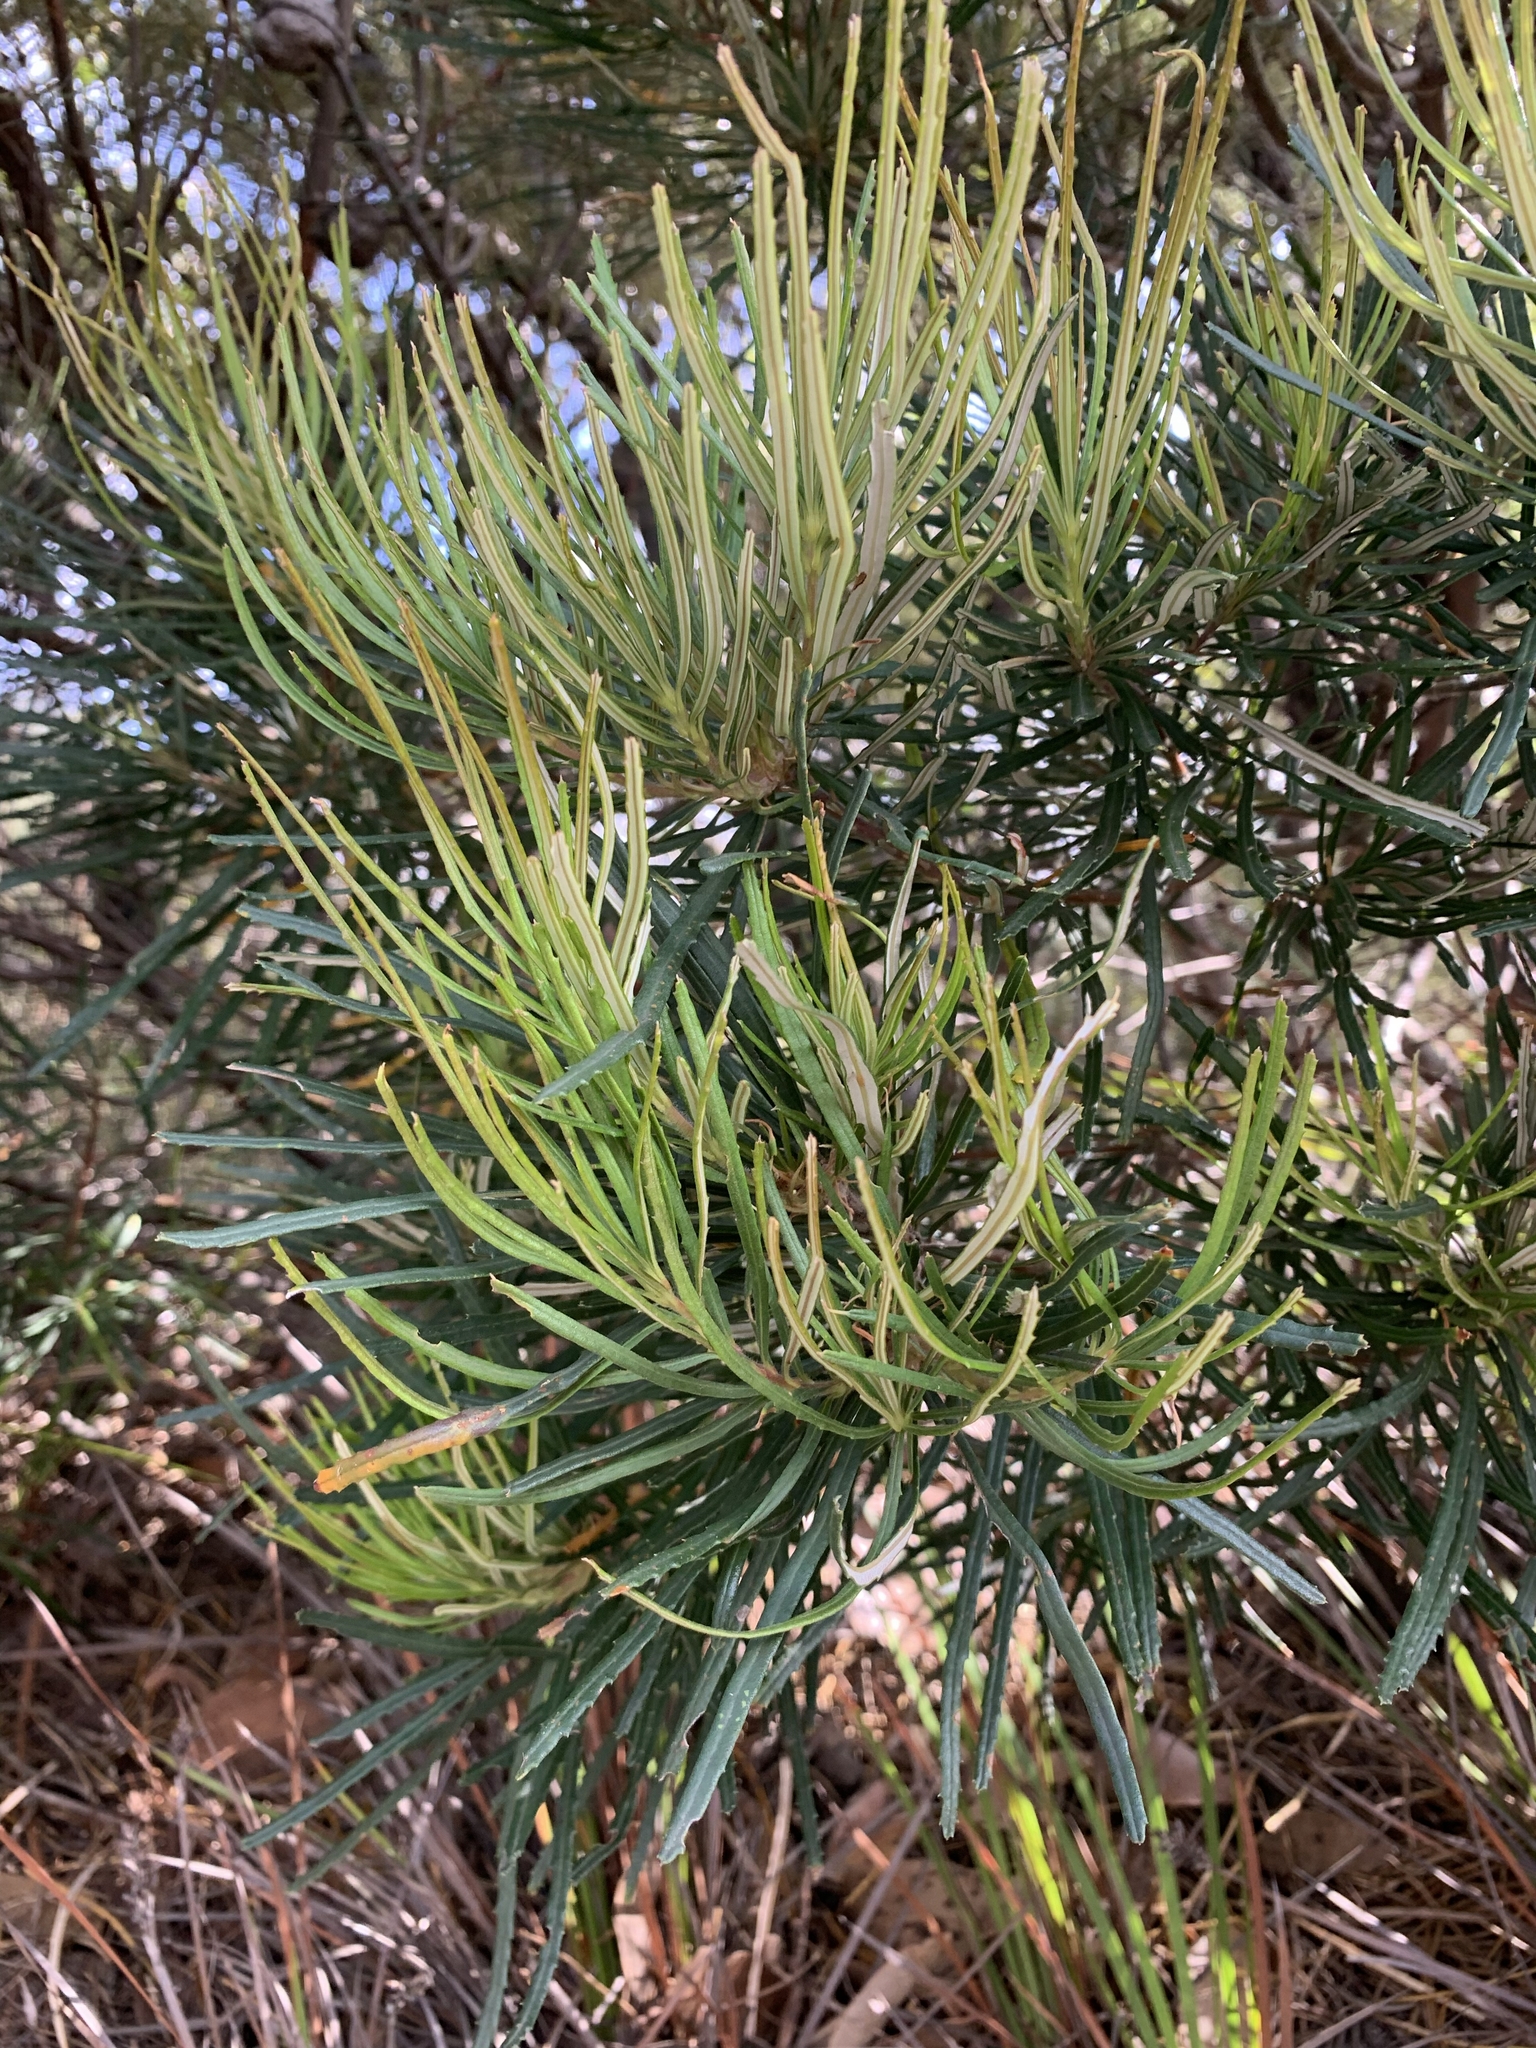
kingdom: Plantae
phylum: Tracheophyta
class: Magnoliopsida
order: Proteales
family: Proteaceae
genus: Banksia
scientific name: Banksia spinulosa
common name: Hairpin banksia
